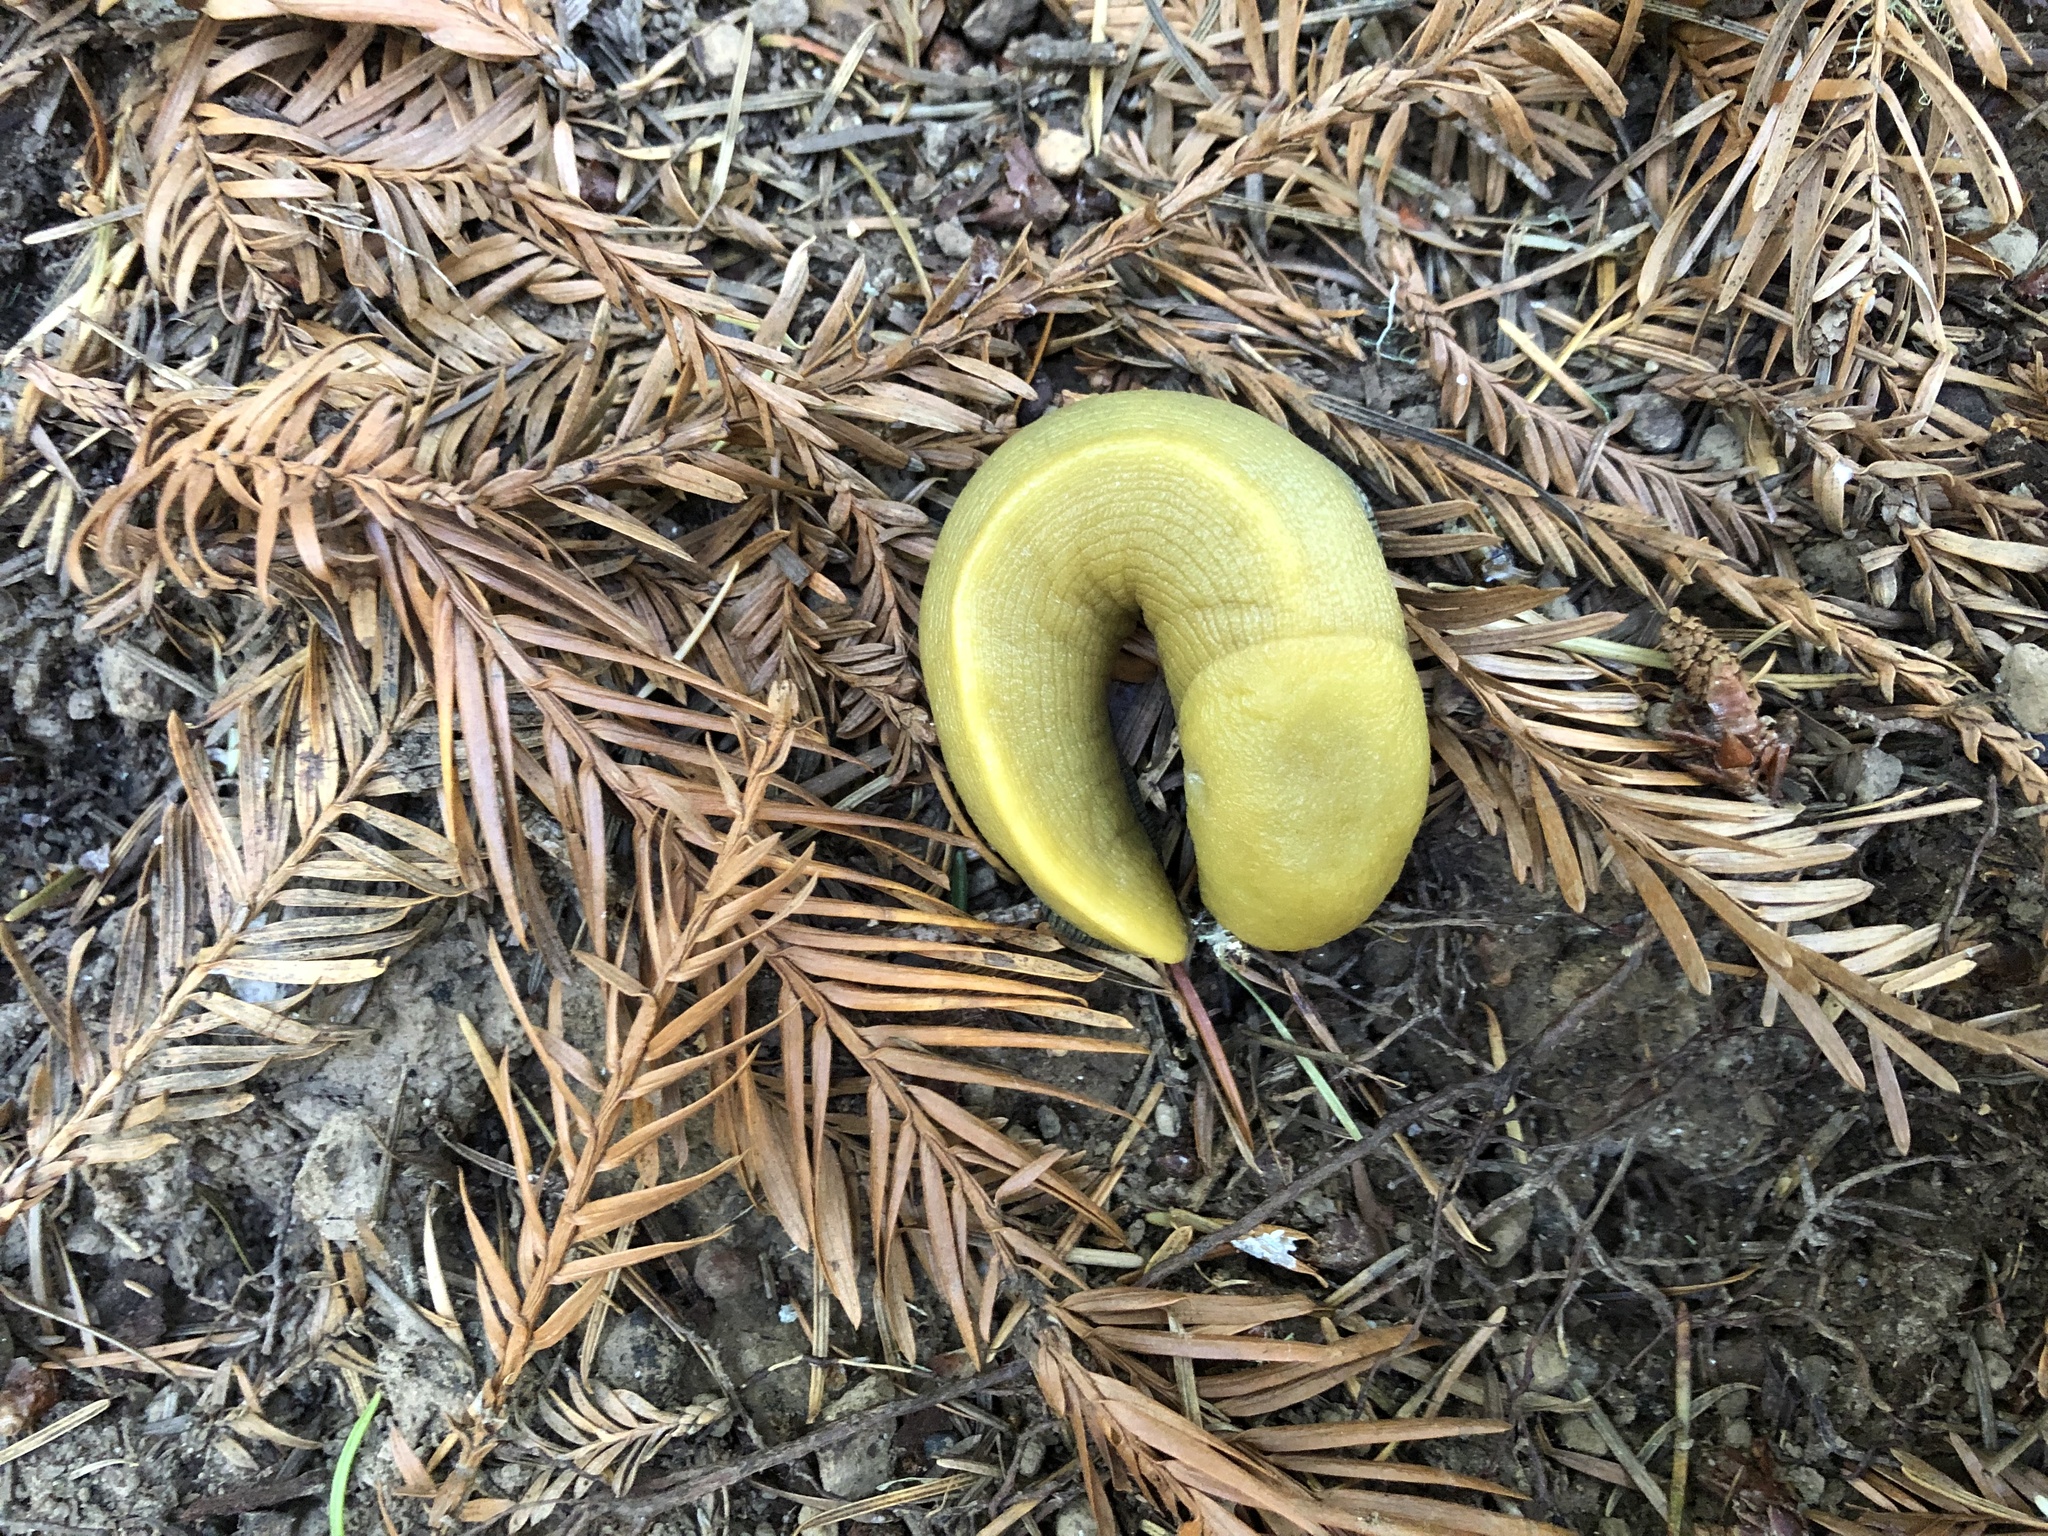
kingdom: Animalia
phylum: Mollusca
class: Gastropoda
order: Stylommatophora
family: Ariolimacidae
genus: Ariolimax
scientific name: Ariolimax dolichophallus
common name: Slender banana slug
